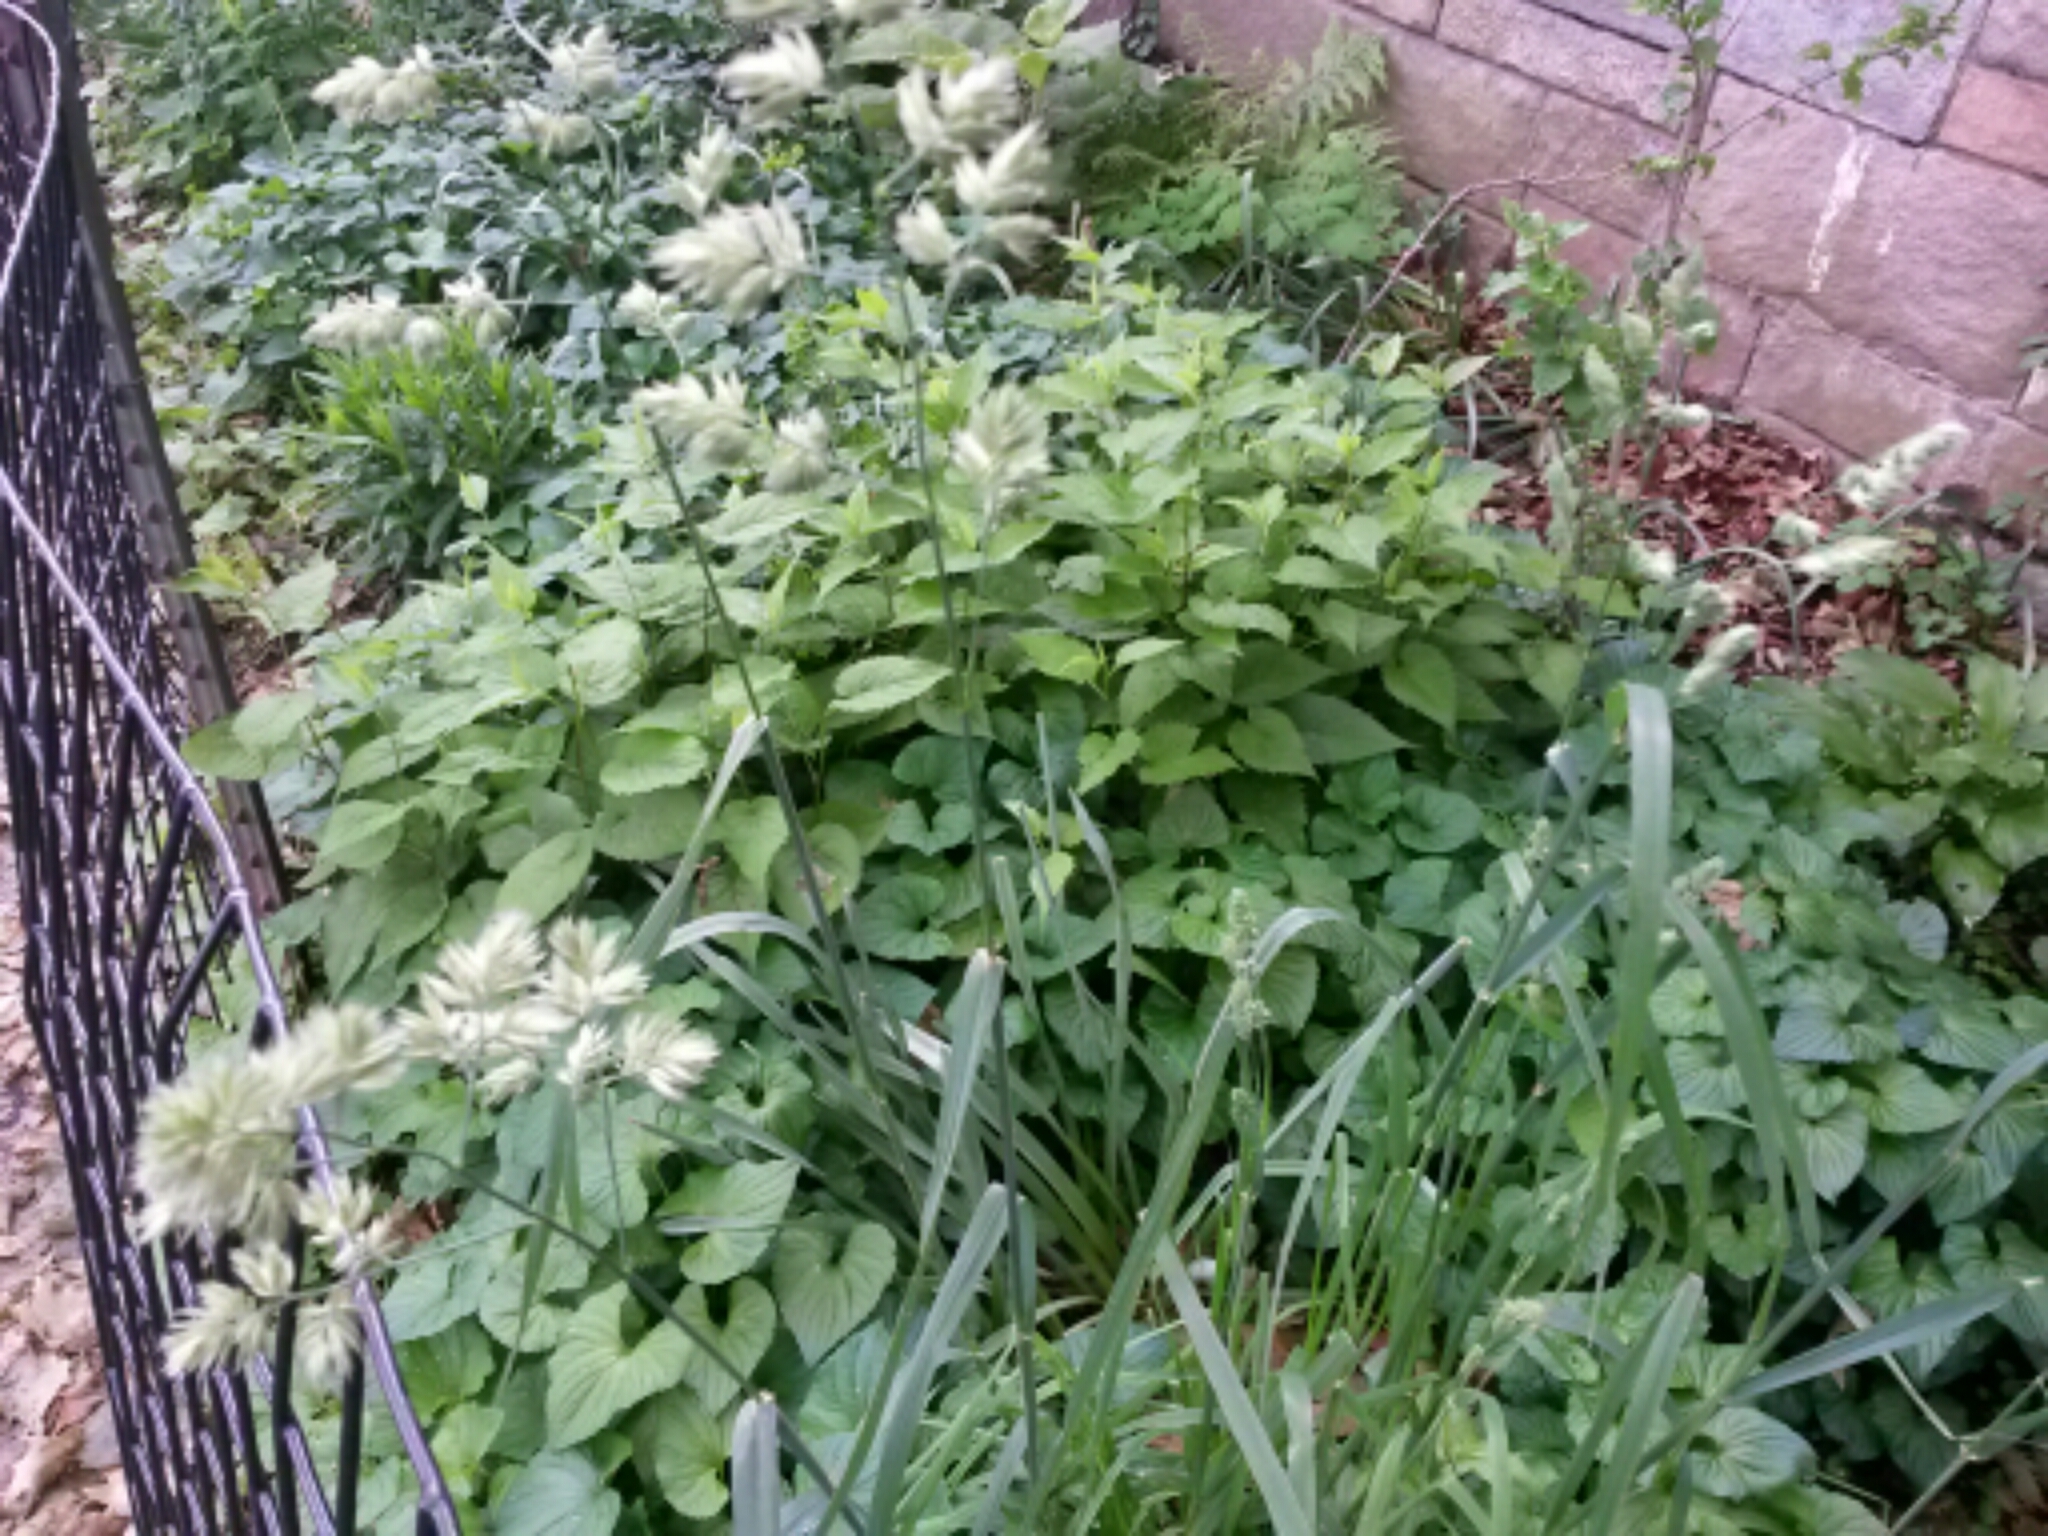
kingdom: Plantae
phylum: Tracheophyta
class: Liliopsida
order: Poales
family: Poaceae
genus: Dactylis
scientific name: Dactylis glomerata
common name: Orchardgrass
